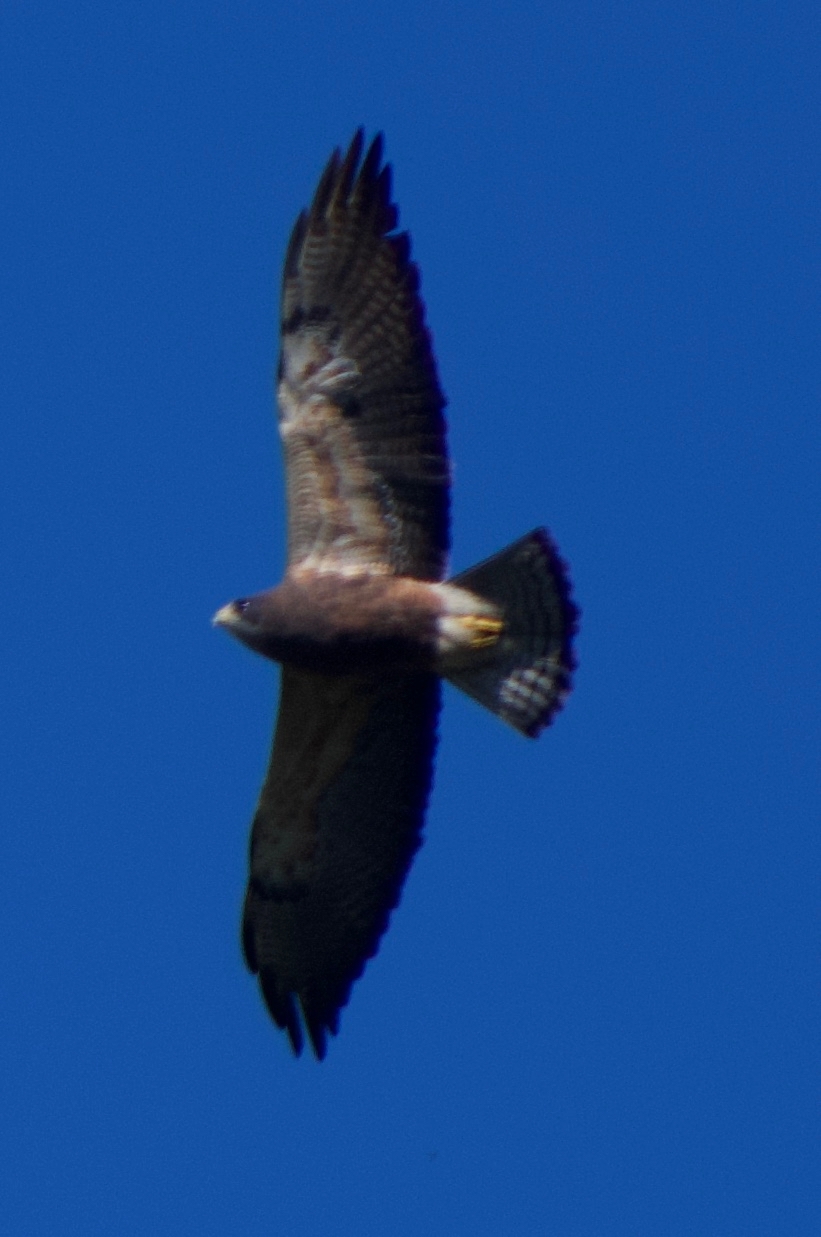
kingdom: Animalia
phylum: Chordata
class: Aves
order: Accipitriformes
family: Accipitridae
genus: Buteo
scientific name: Buteo swainsoni
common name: Swainson's hawk
